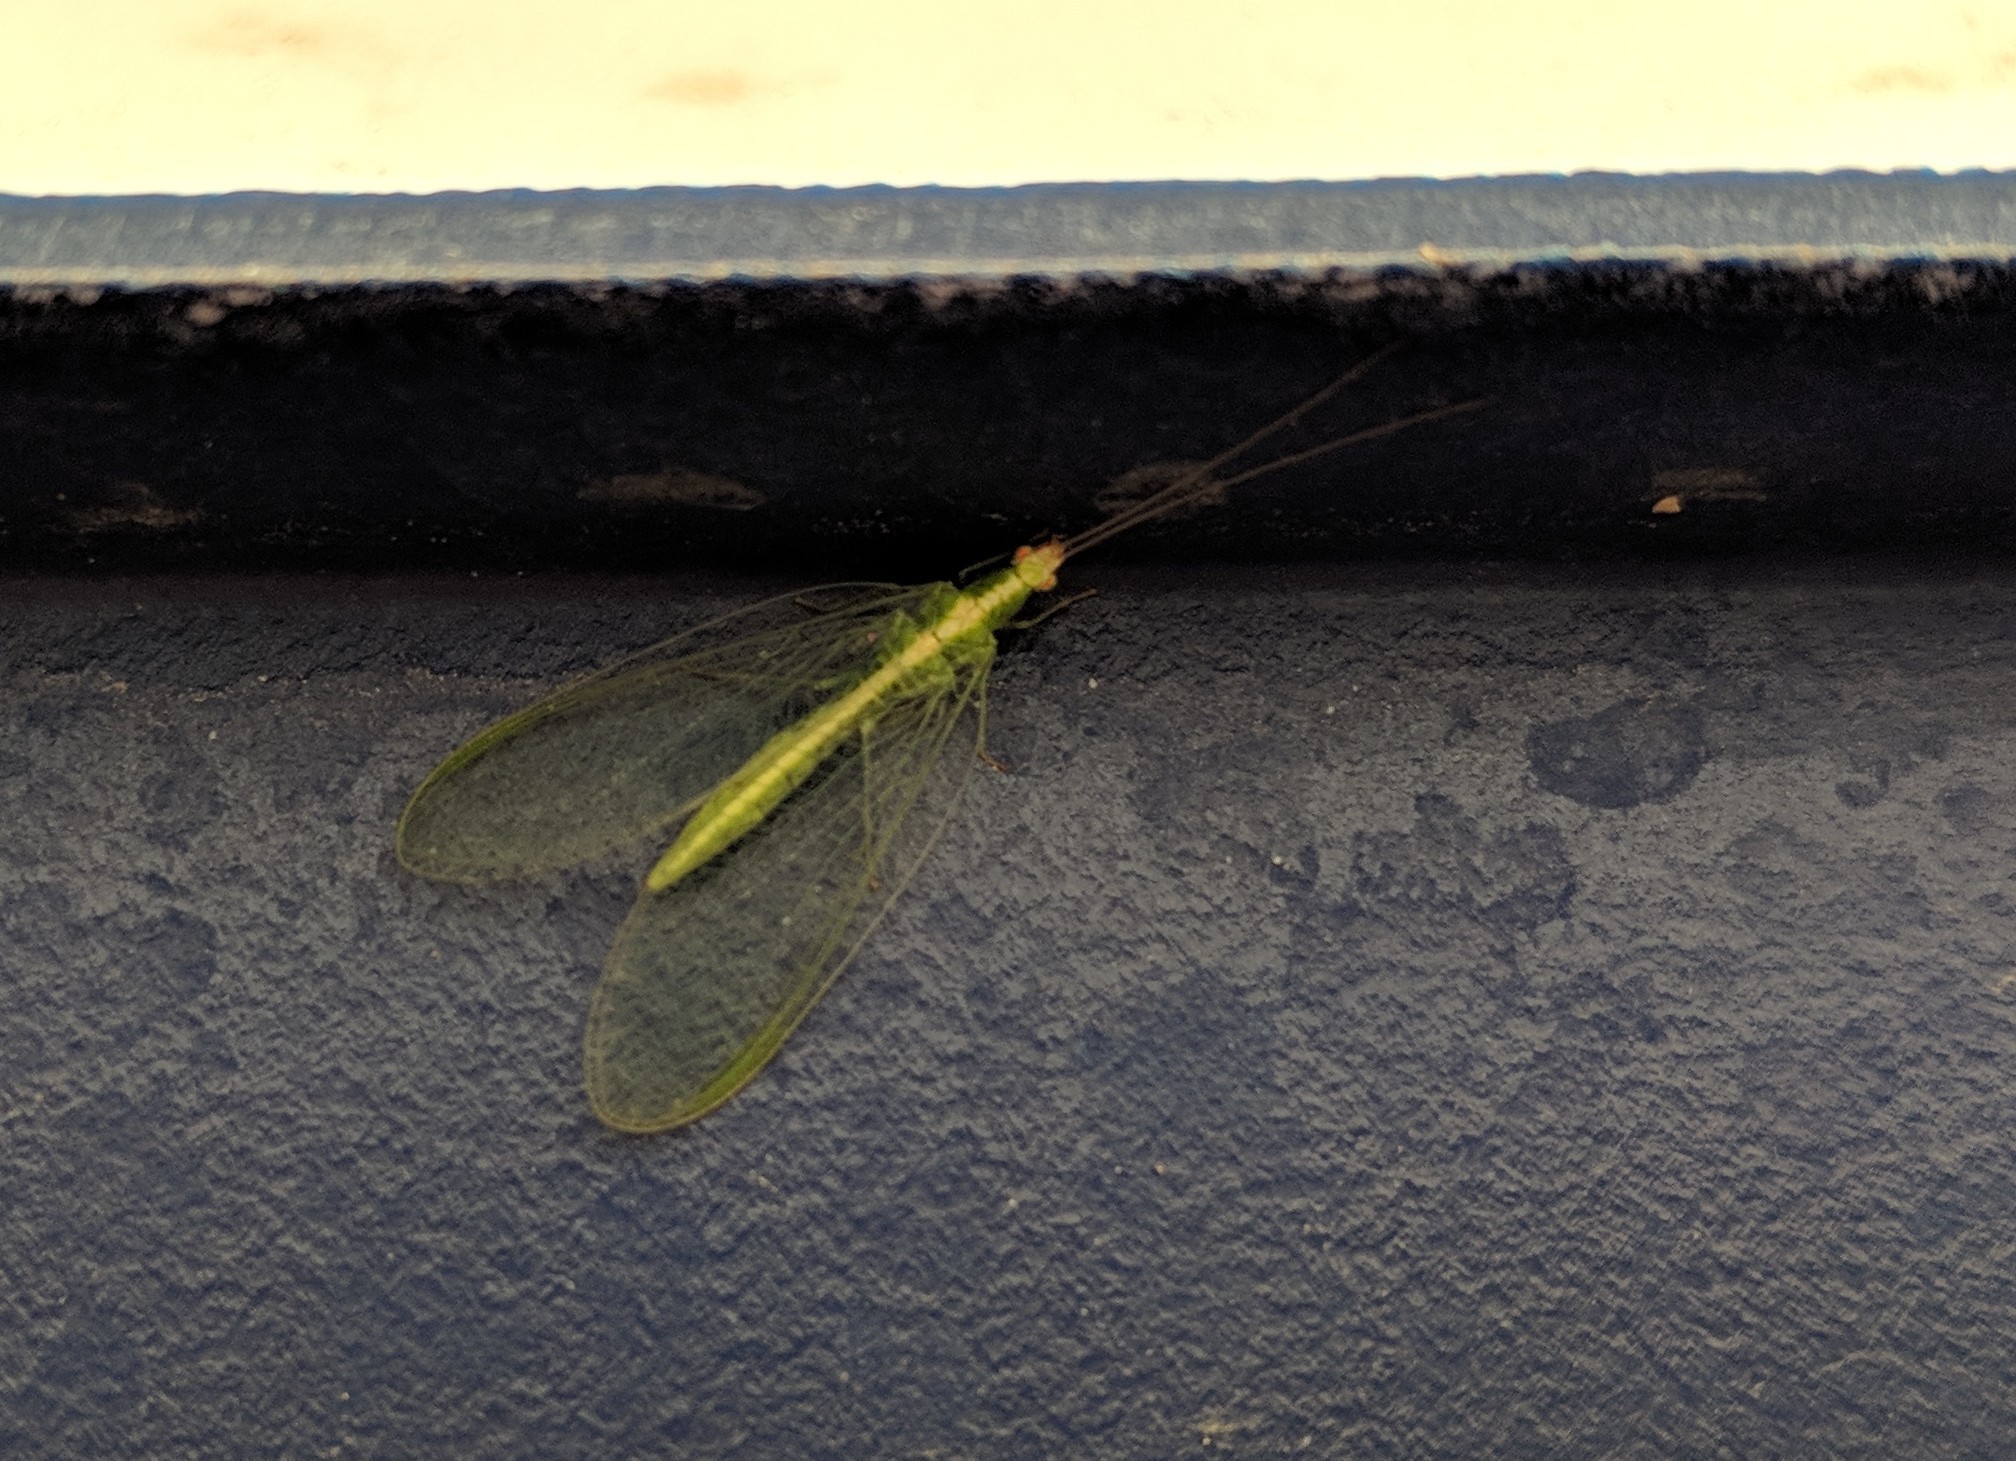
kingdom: Animalia
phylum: Arthropoda
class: Insecta
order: Neuroptera
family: Chrysopidae
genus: Chrysoperla
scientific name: Chrysoperla
